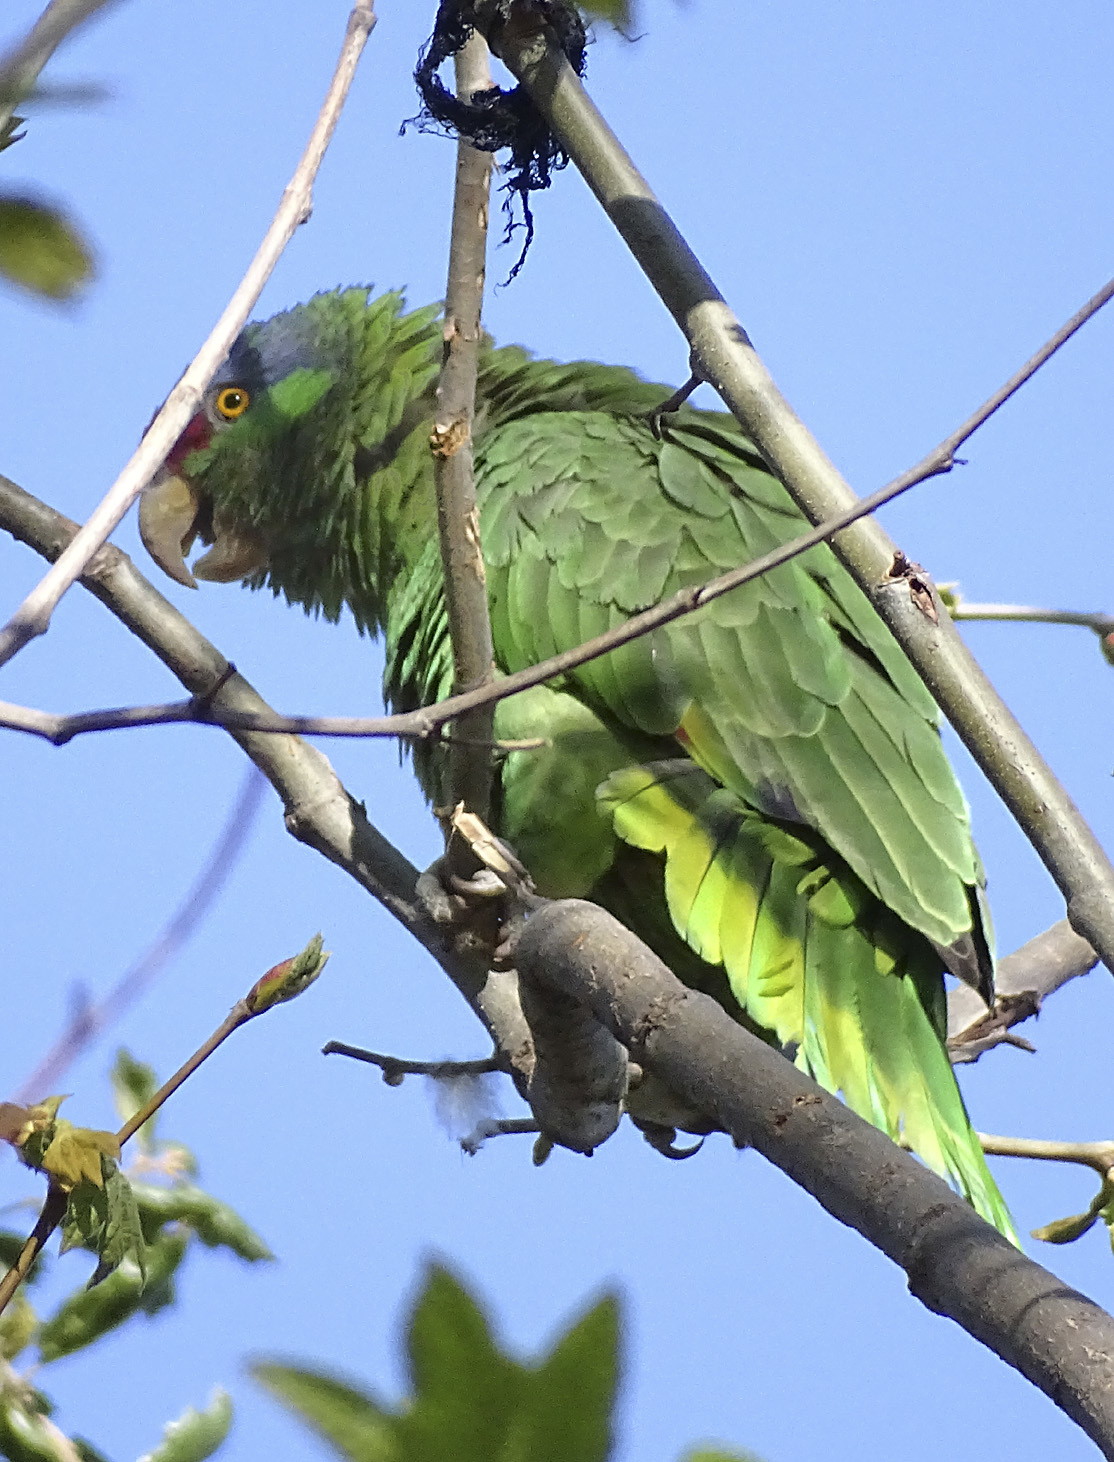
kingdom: Animalia
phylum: Chordata
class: Aves
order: Psittaciformes
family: Psittacidae
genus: Amazona
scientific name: Amazona viridigenalis
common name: Red-crowned amazon
